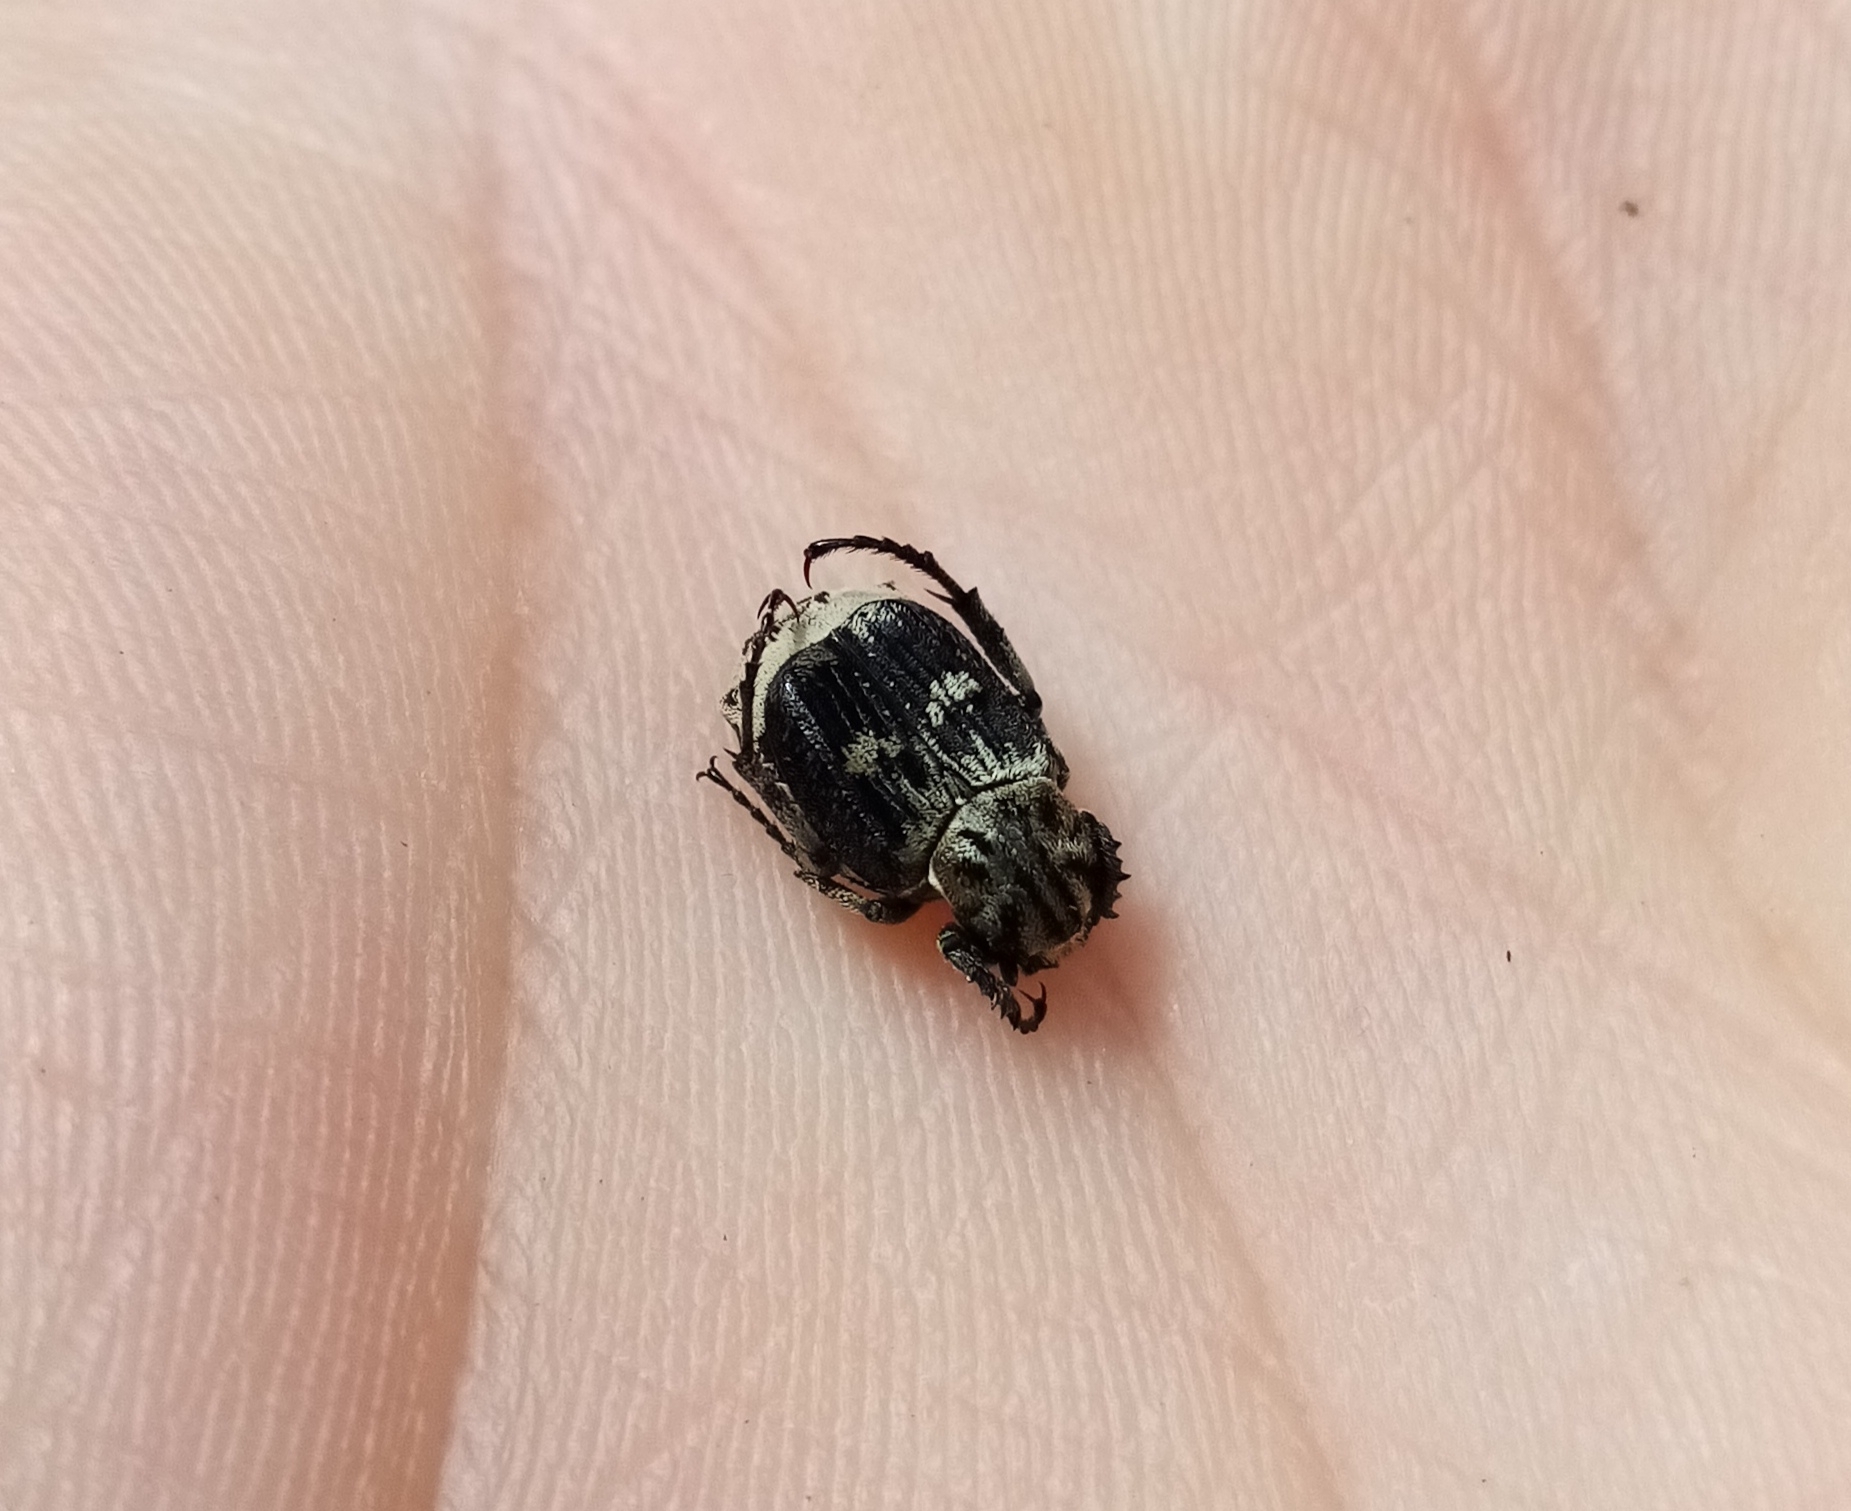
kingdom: Animalia
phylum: Arthropoda
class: Insecta
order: Coleoptera
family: Scarabaeidae
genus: Valgus
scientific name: Valgus hemipterus
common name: Bug flower chafer
